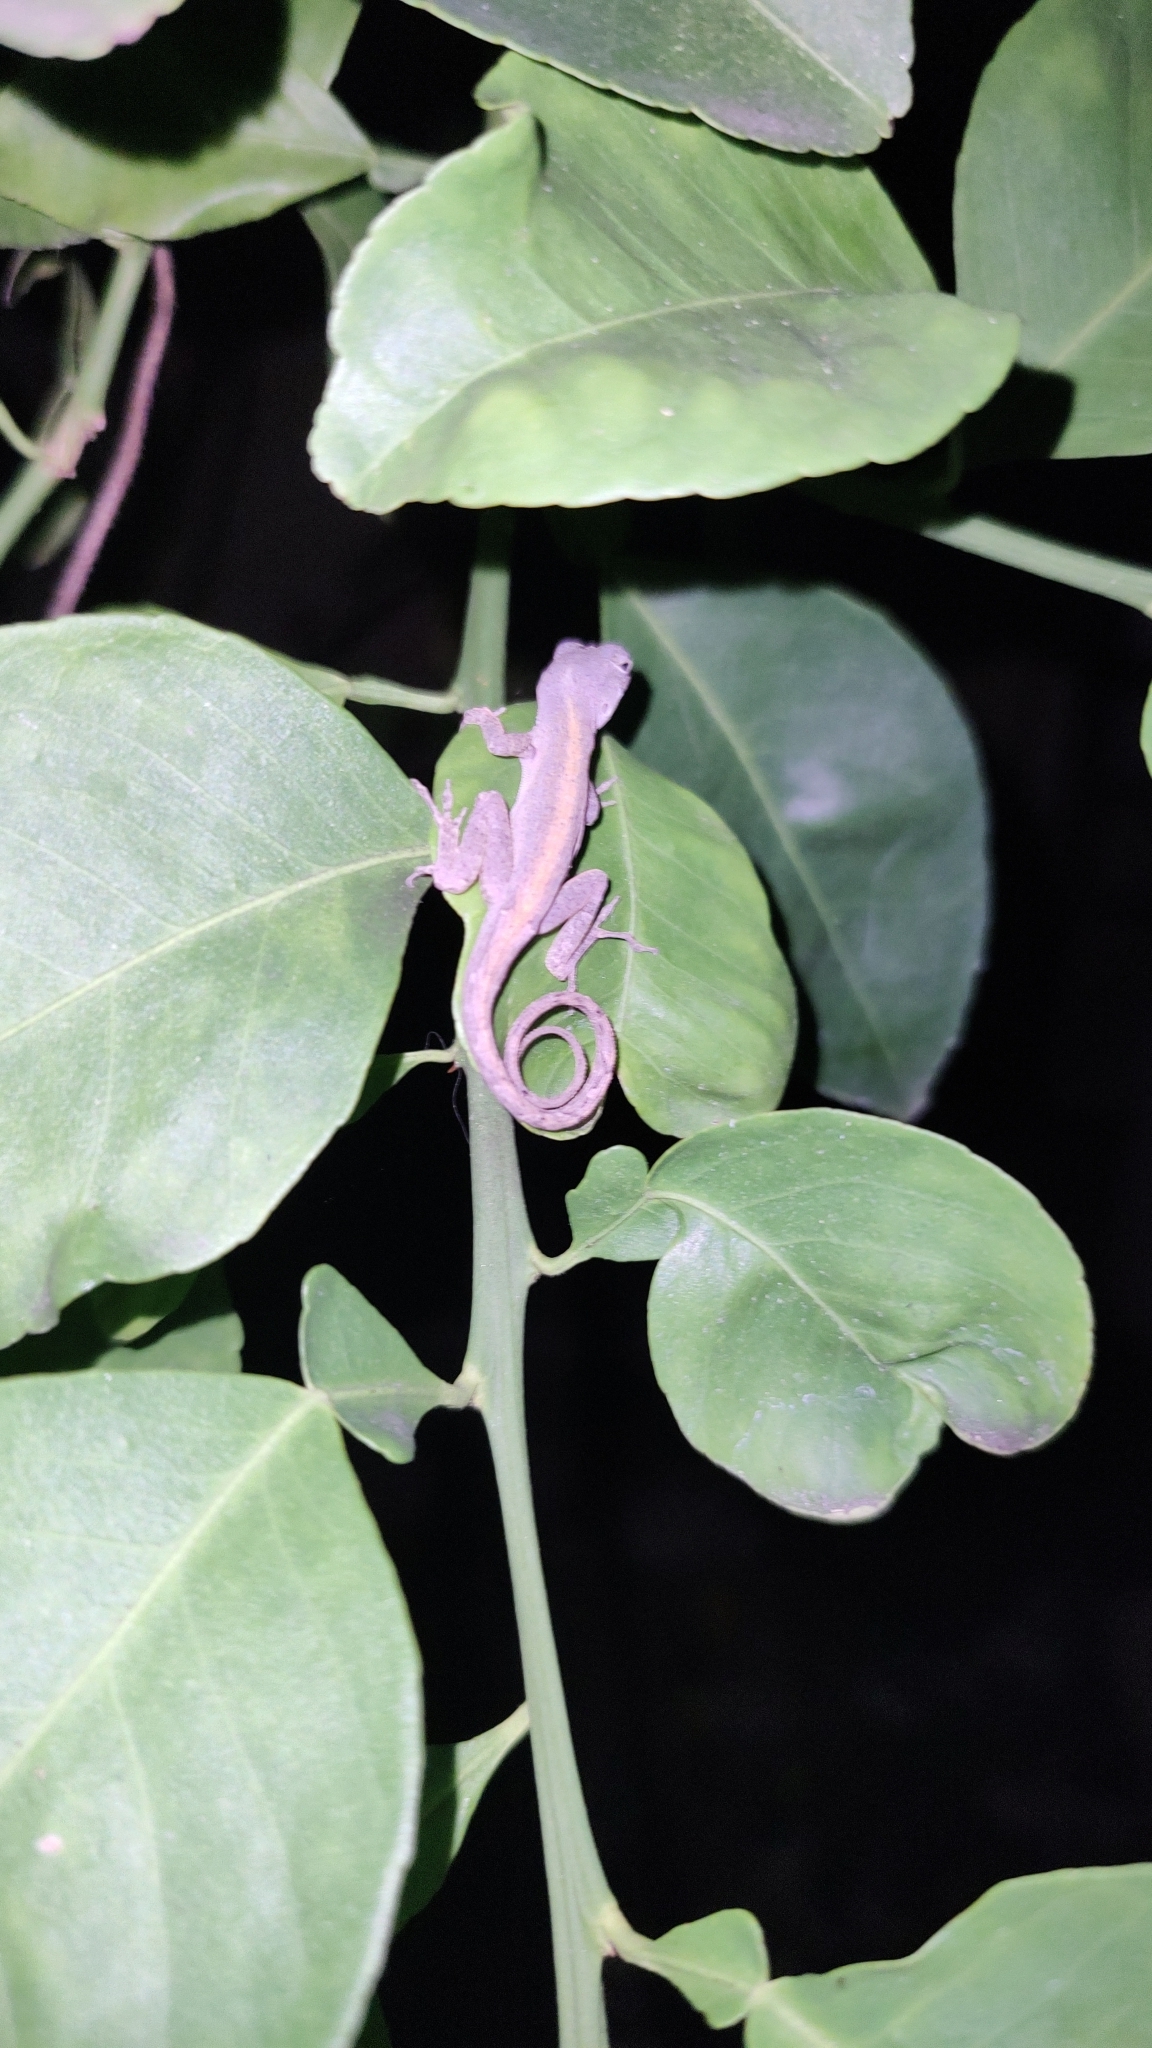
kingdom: Animalia
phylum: Chordata
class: Squamata
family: Dactyloidae
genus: Anolis
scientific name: Anolis sagrei
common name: Brown anole
